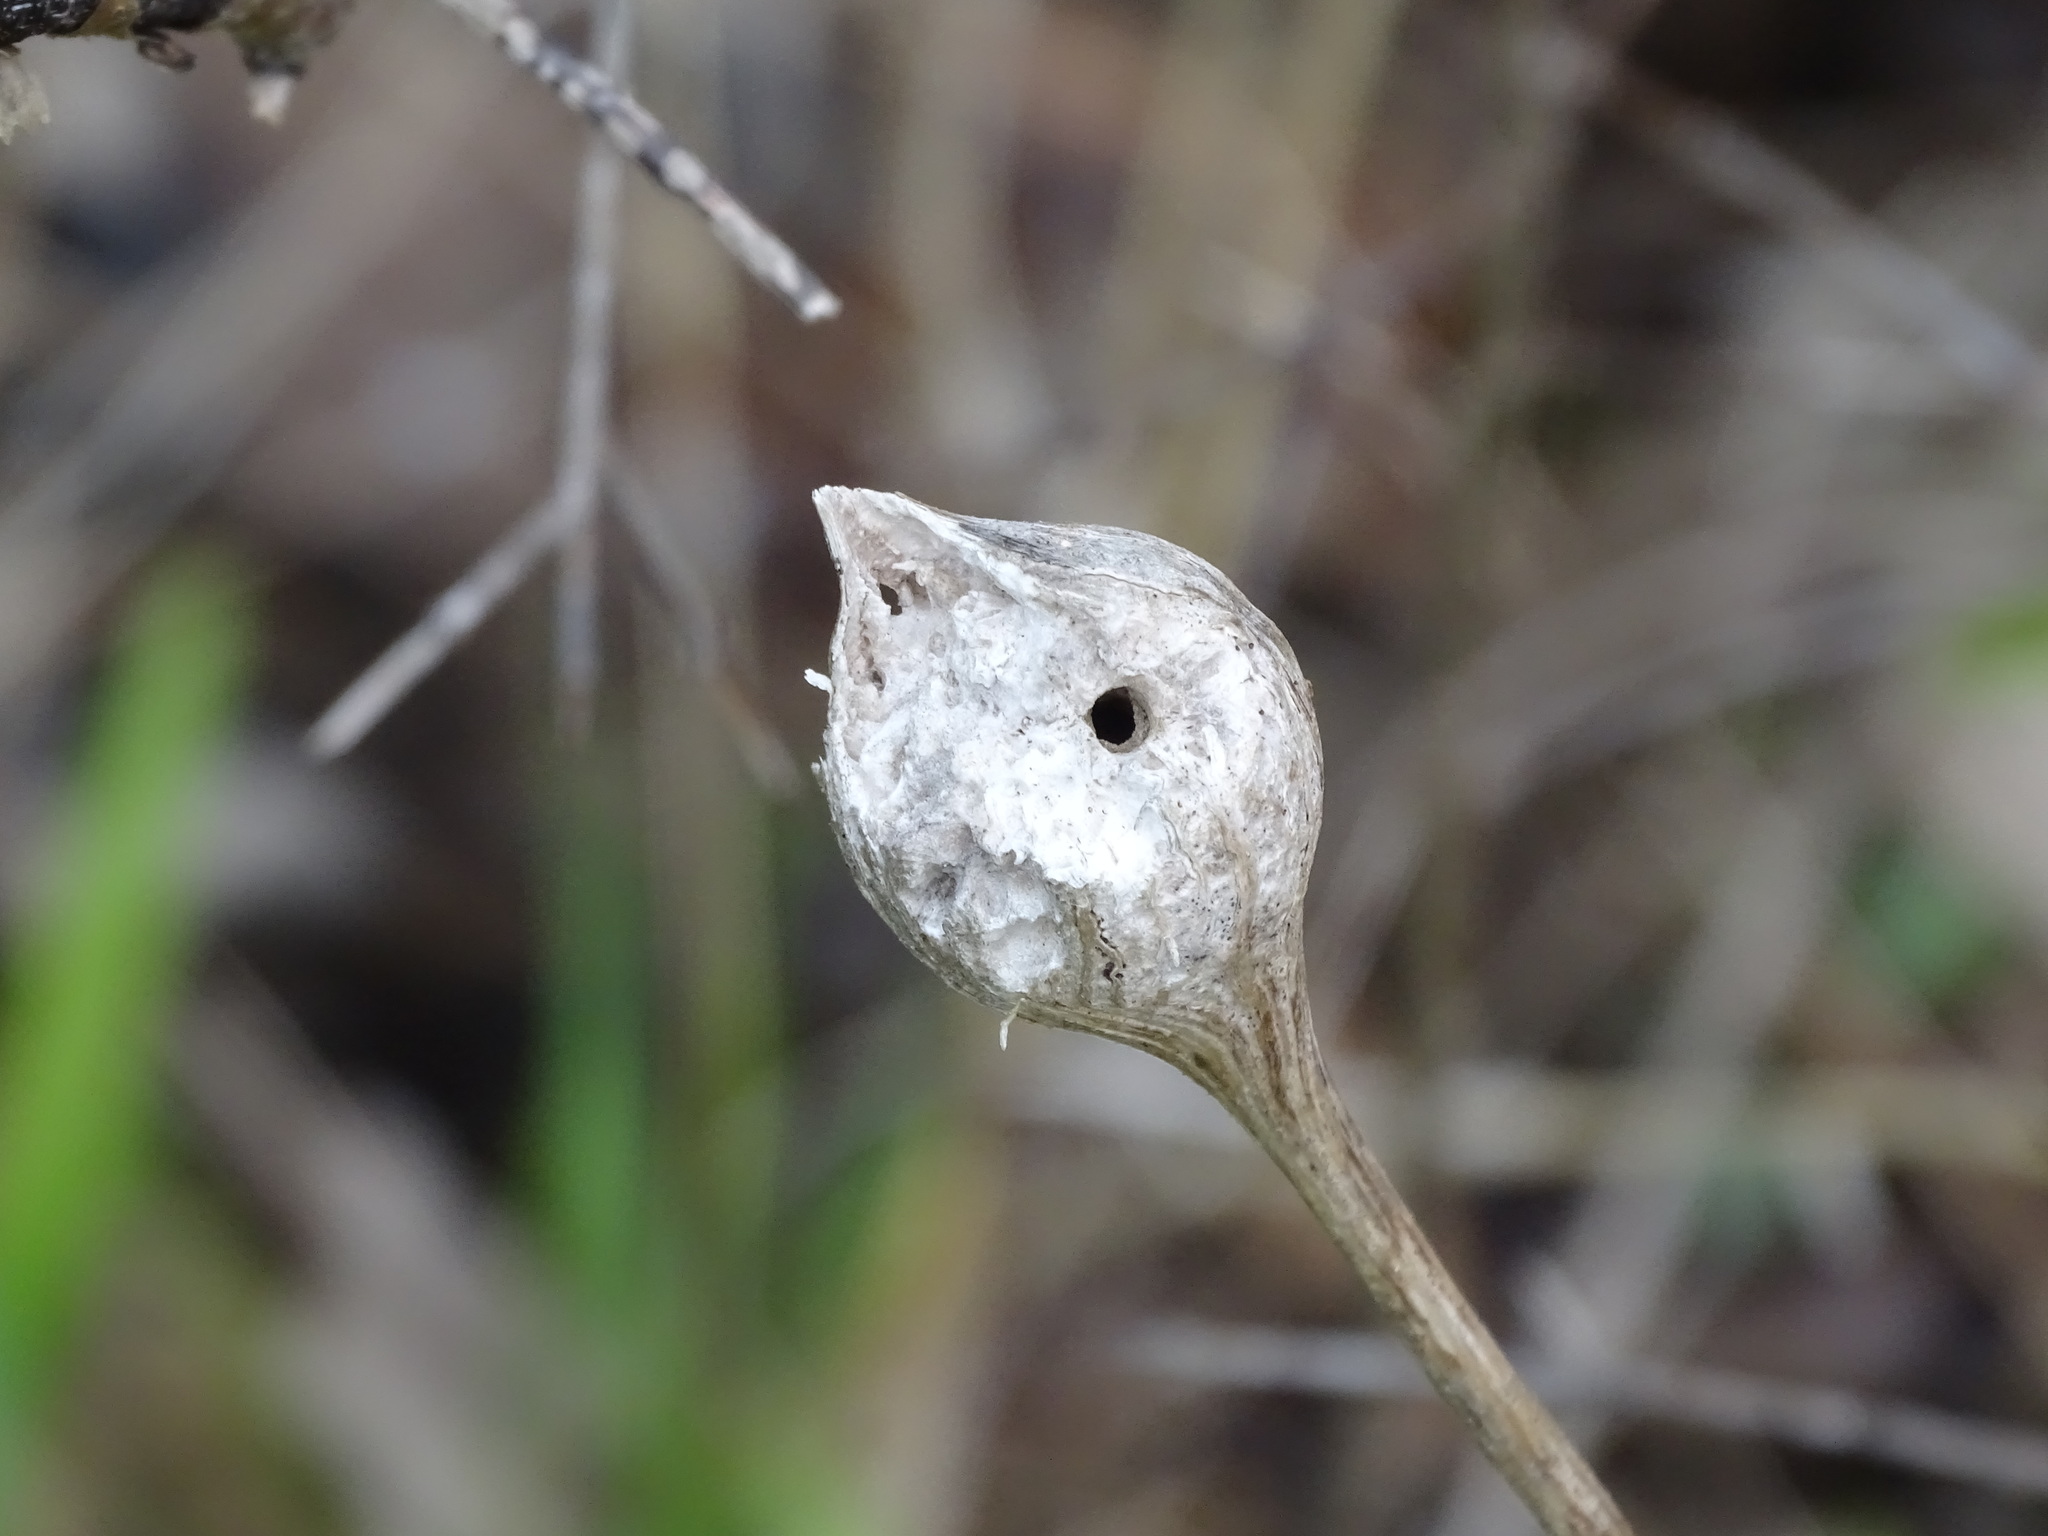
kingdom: Animalia
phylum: Arthropoda
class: Insecta
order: Diptera
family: Tephritidae
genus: Eurosta
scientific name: Eurosta solidaginis
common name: Goldenrod gall fly
